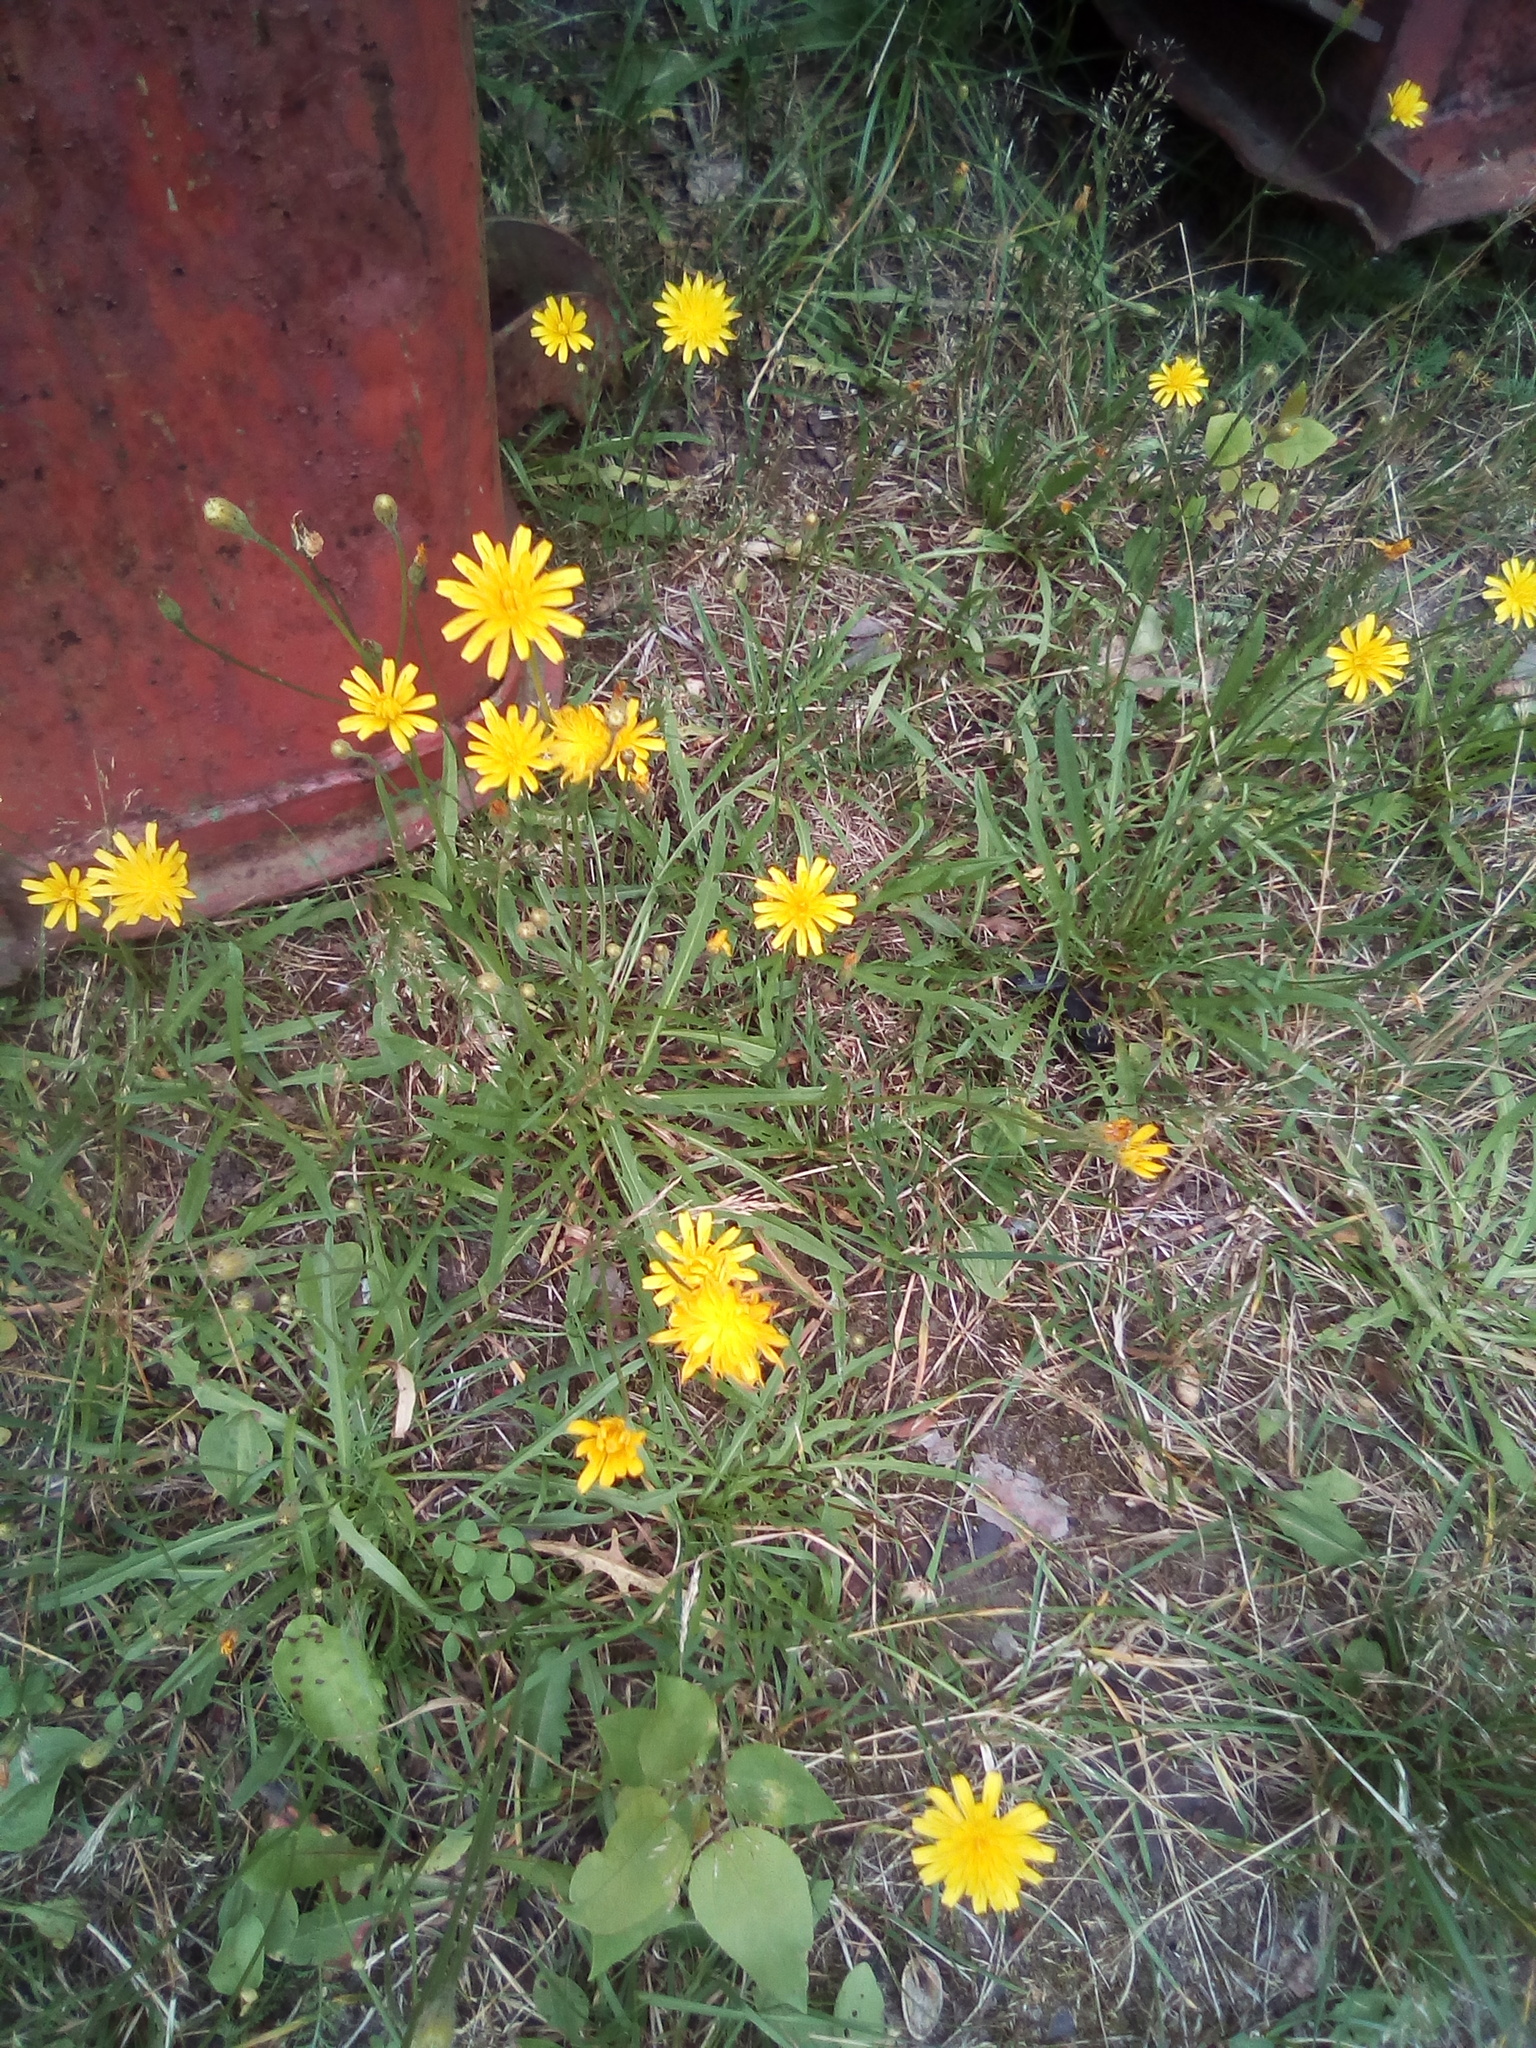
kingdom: Plantae
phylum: Tracheophyta
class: Magnoliopsida
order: Asterales
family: Asteraceae
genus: Scorzoneroides
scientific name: Scorzoneroides autumnalis
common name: Autumn hawkbit
